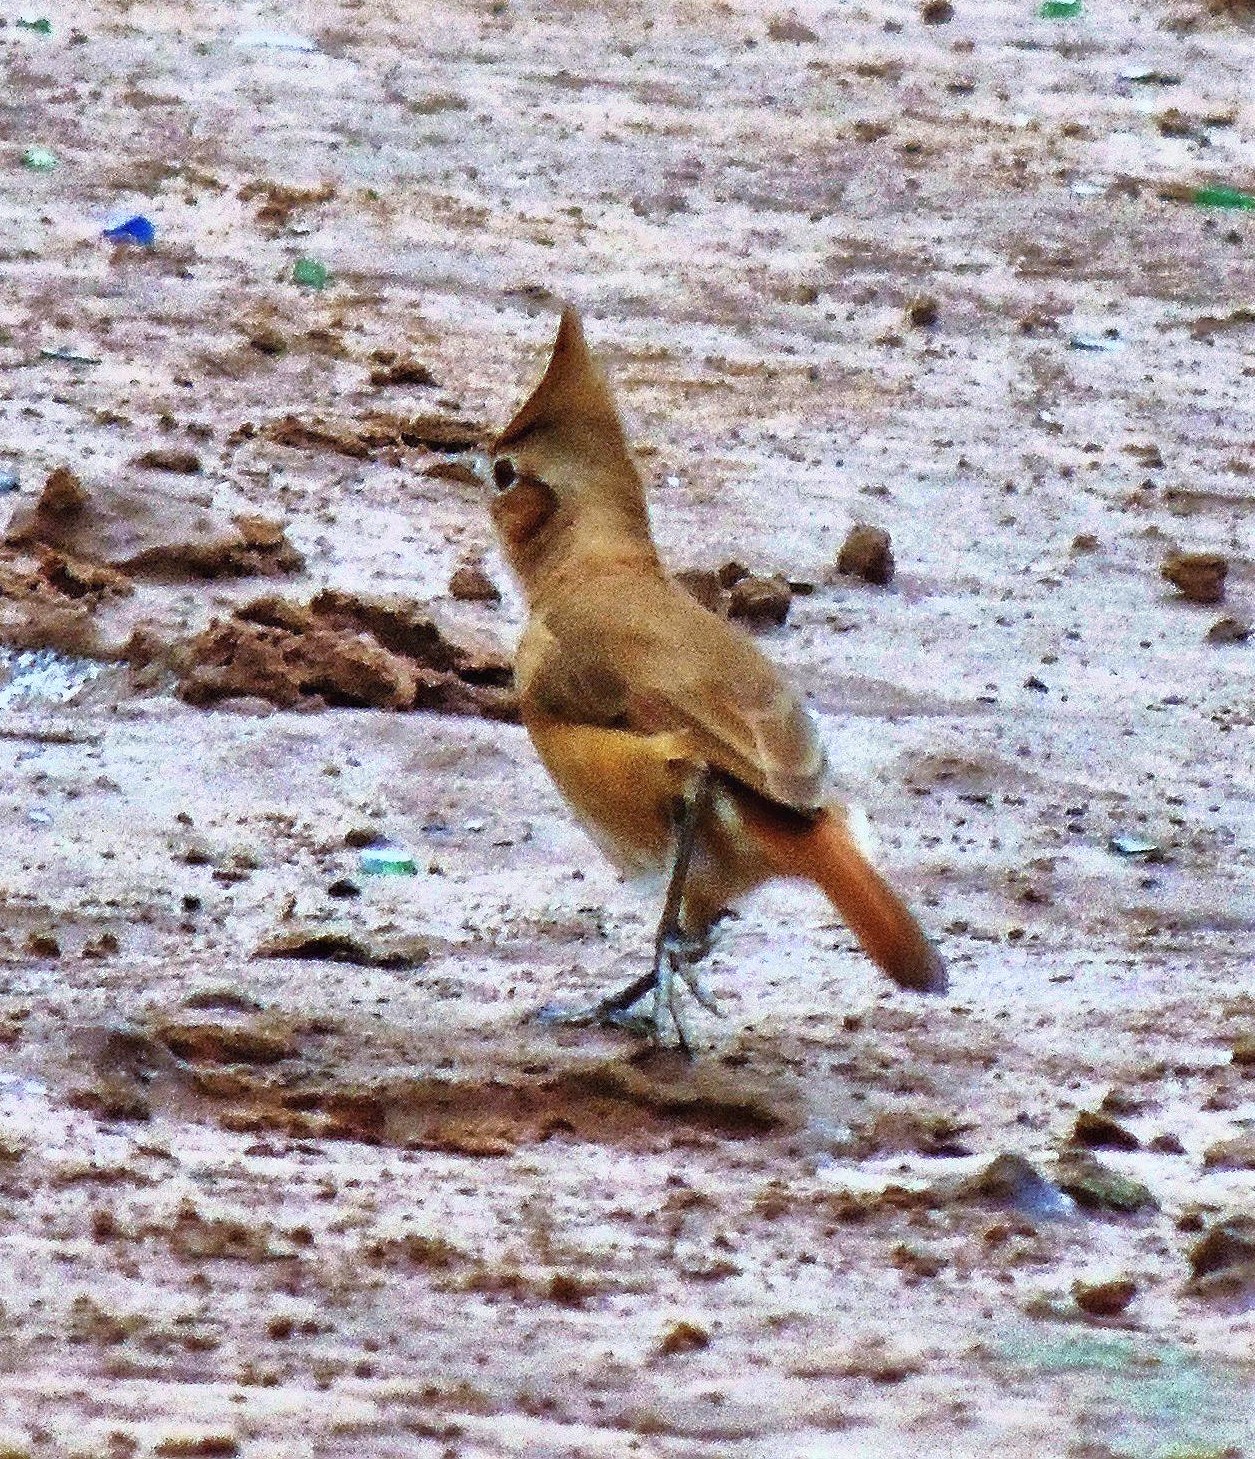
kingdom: Animalia
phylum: Chordata
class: Aves
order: Passeriformes
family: Furnariidae
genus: Furnarius
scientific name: Furnarius cristatus
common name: Crested hornero
